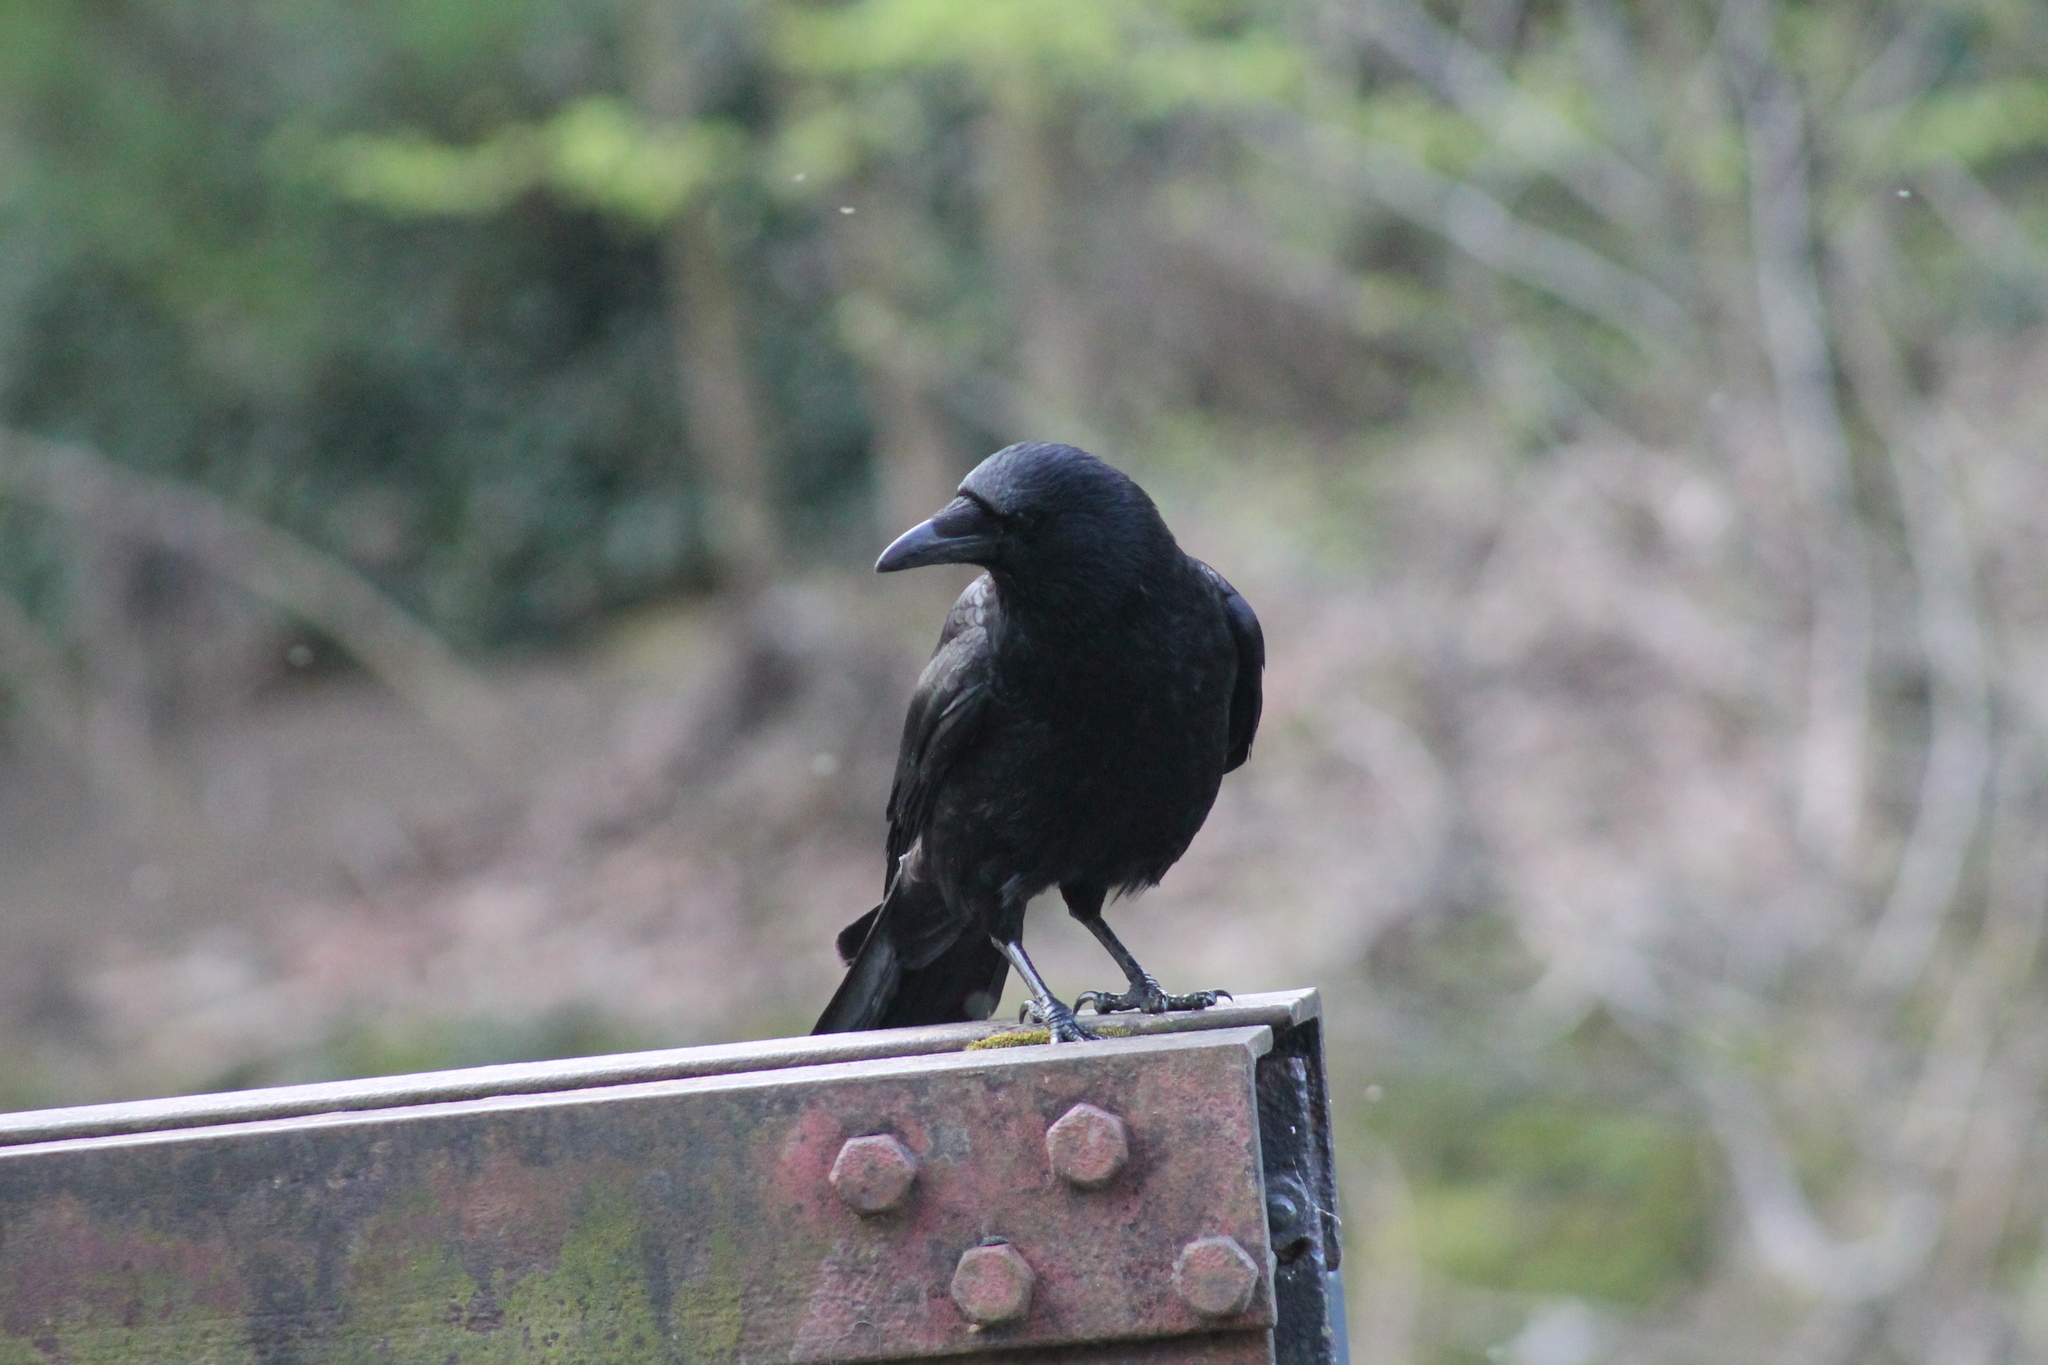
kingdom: Animalia
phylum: Chordata
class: Aves
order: Passeriformes
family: Corvidae
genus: Corvus
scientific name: Corvus corone
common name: Carrion crow
